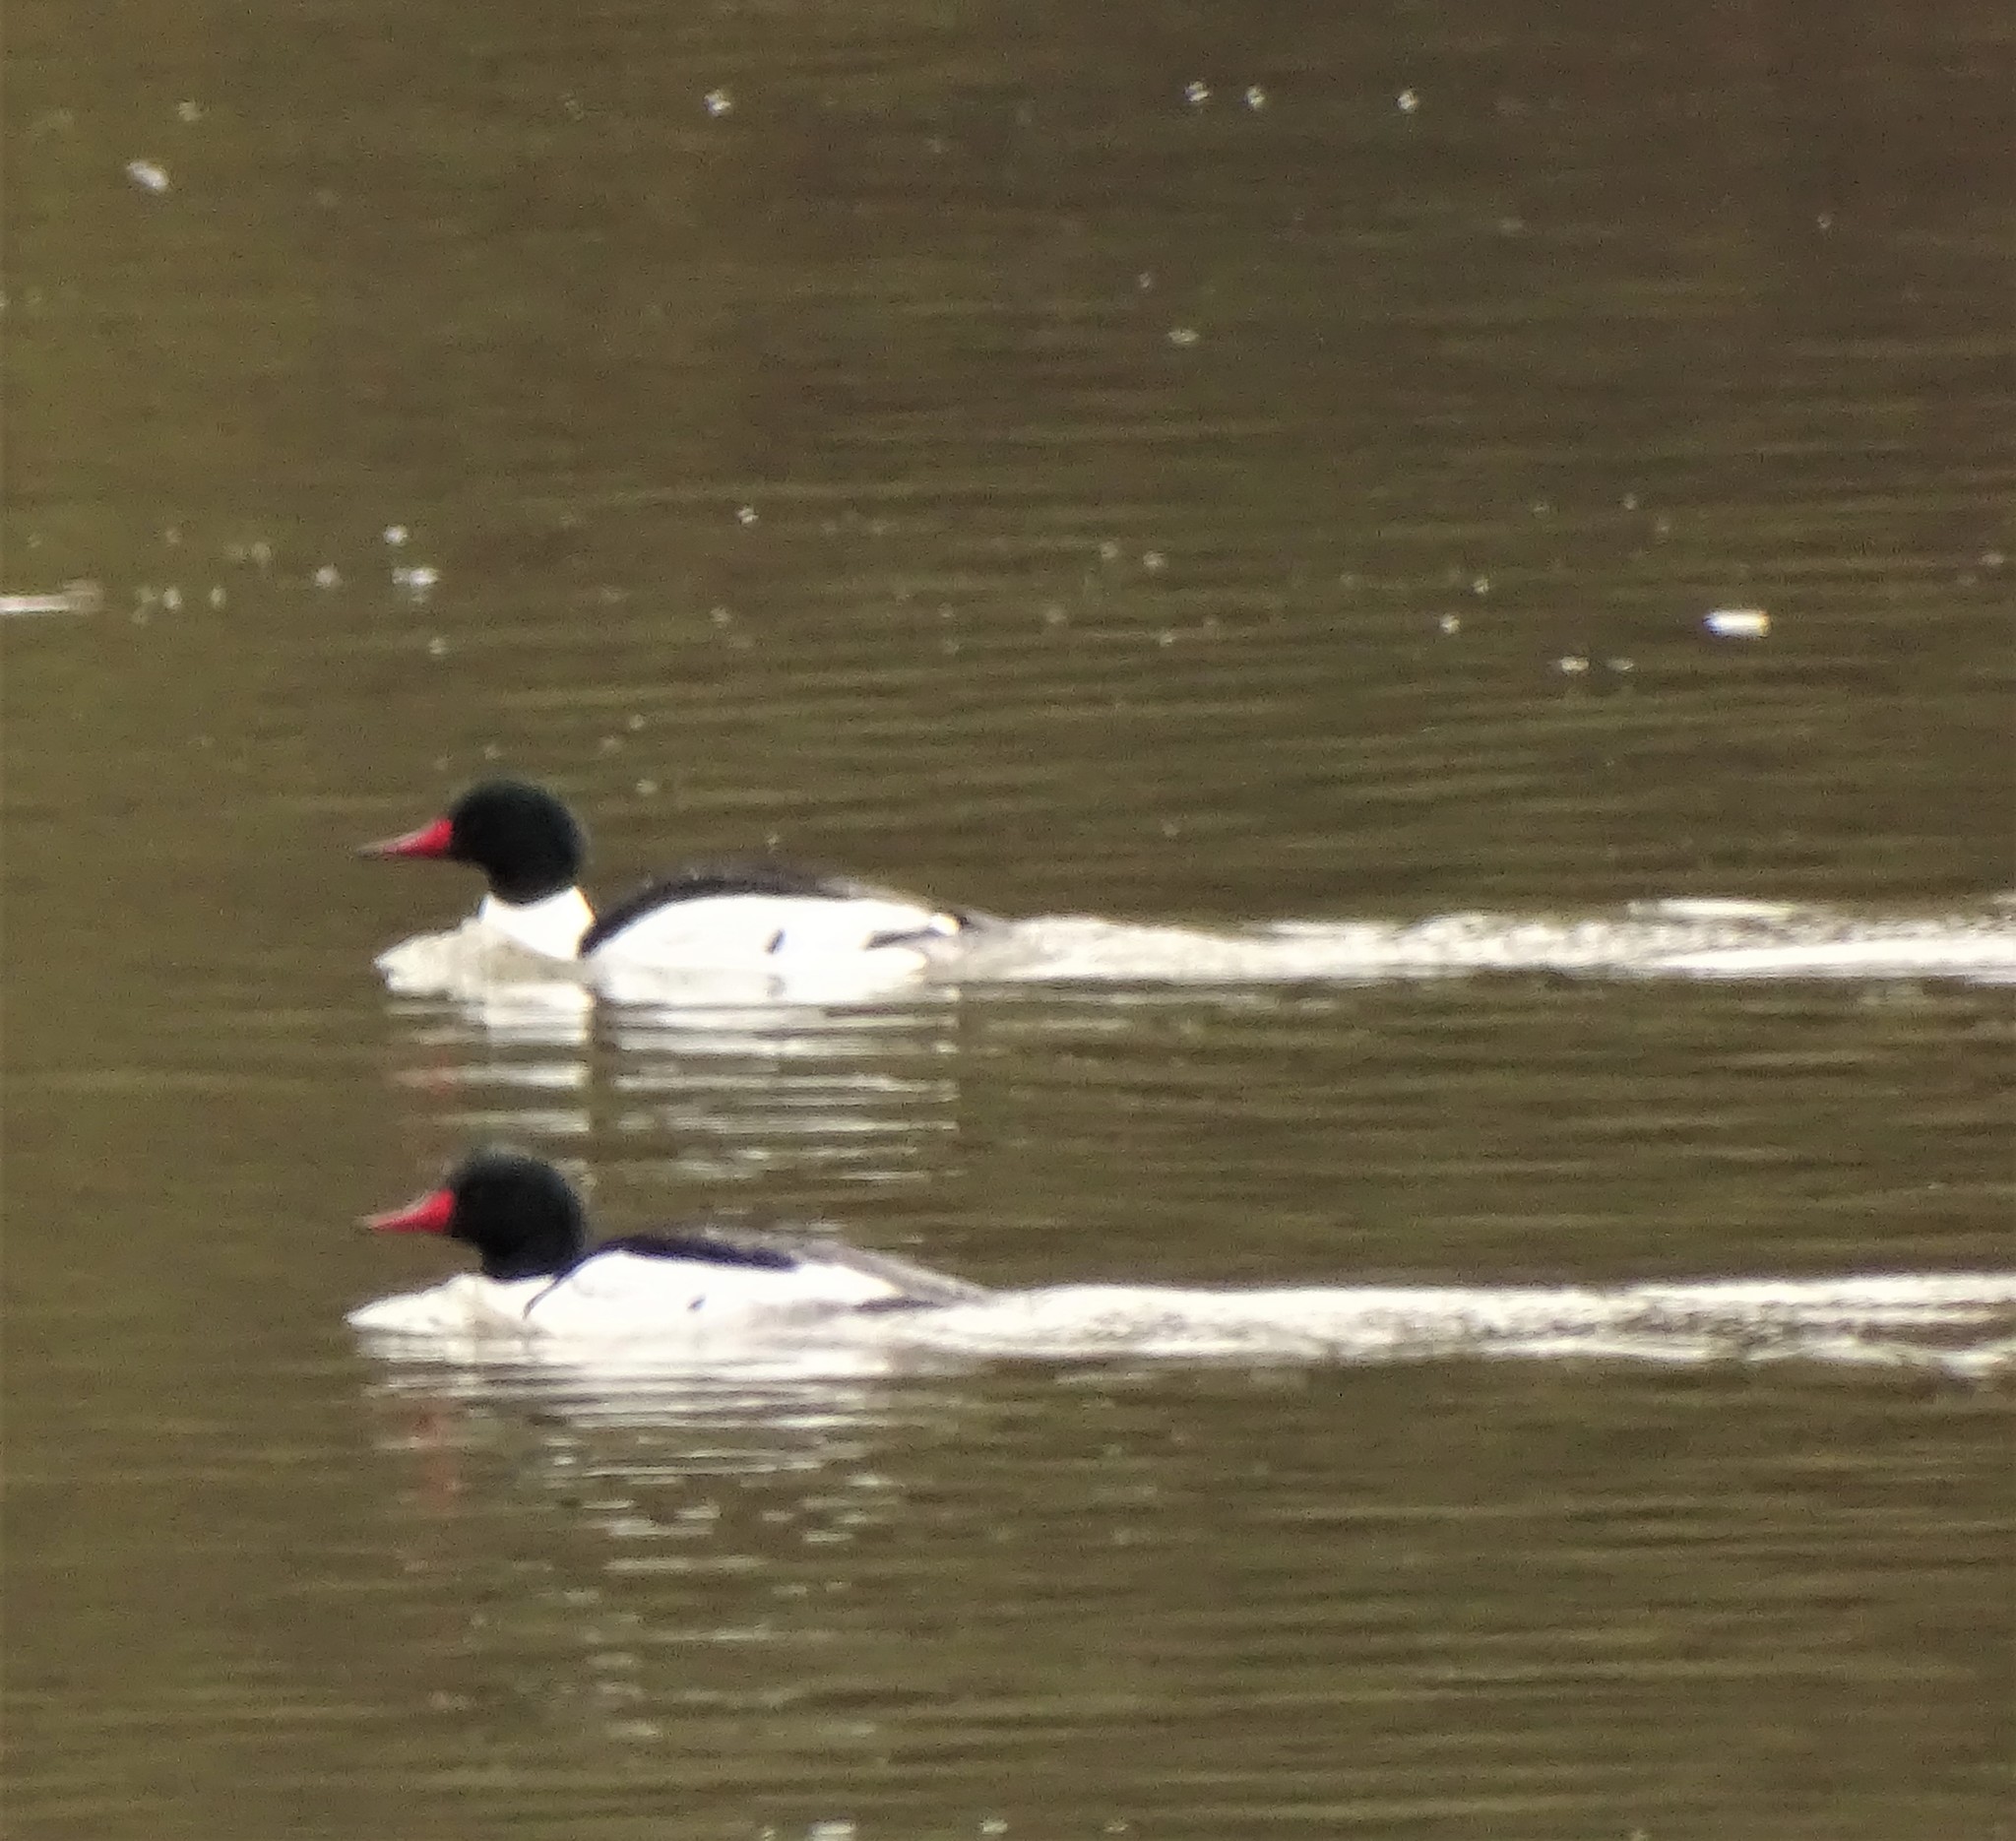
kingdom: Animalia
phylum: Chordata
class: Aves
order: Anseriformes
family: Anatidae
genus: Mergus
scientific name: Mergus merganser
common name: Common merganser
